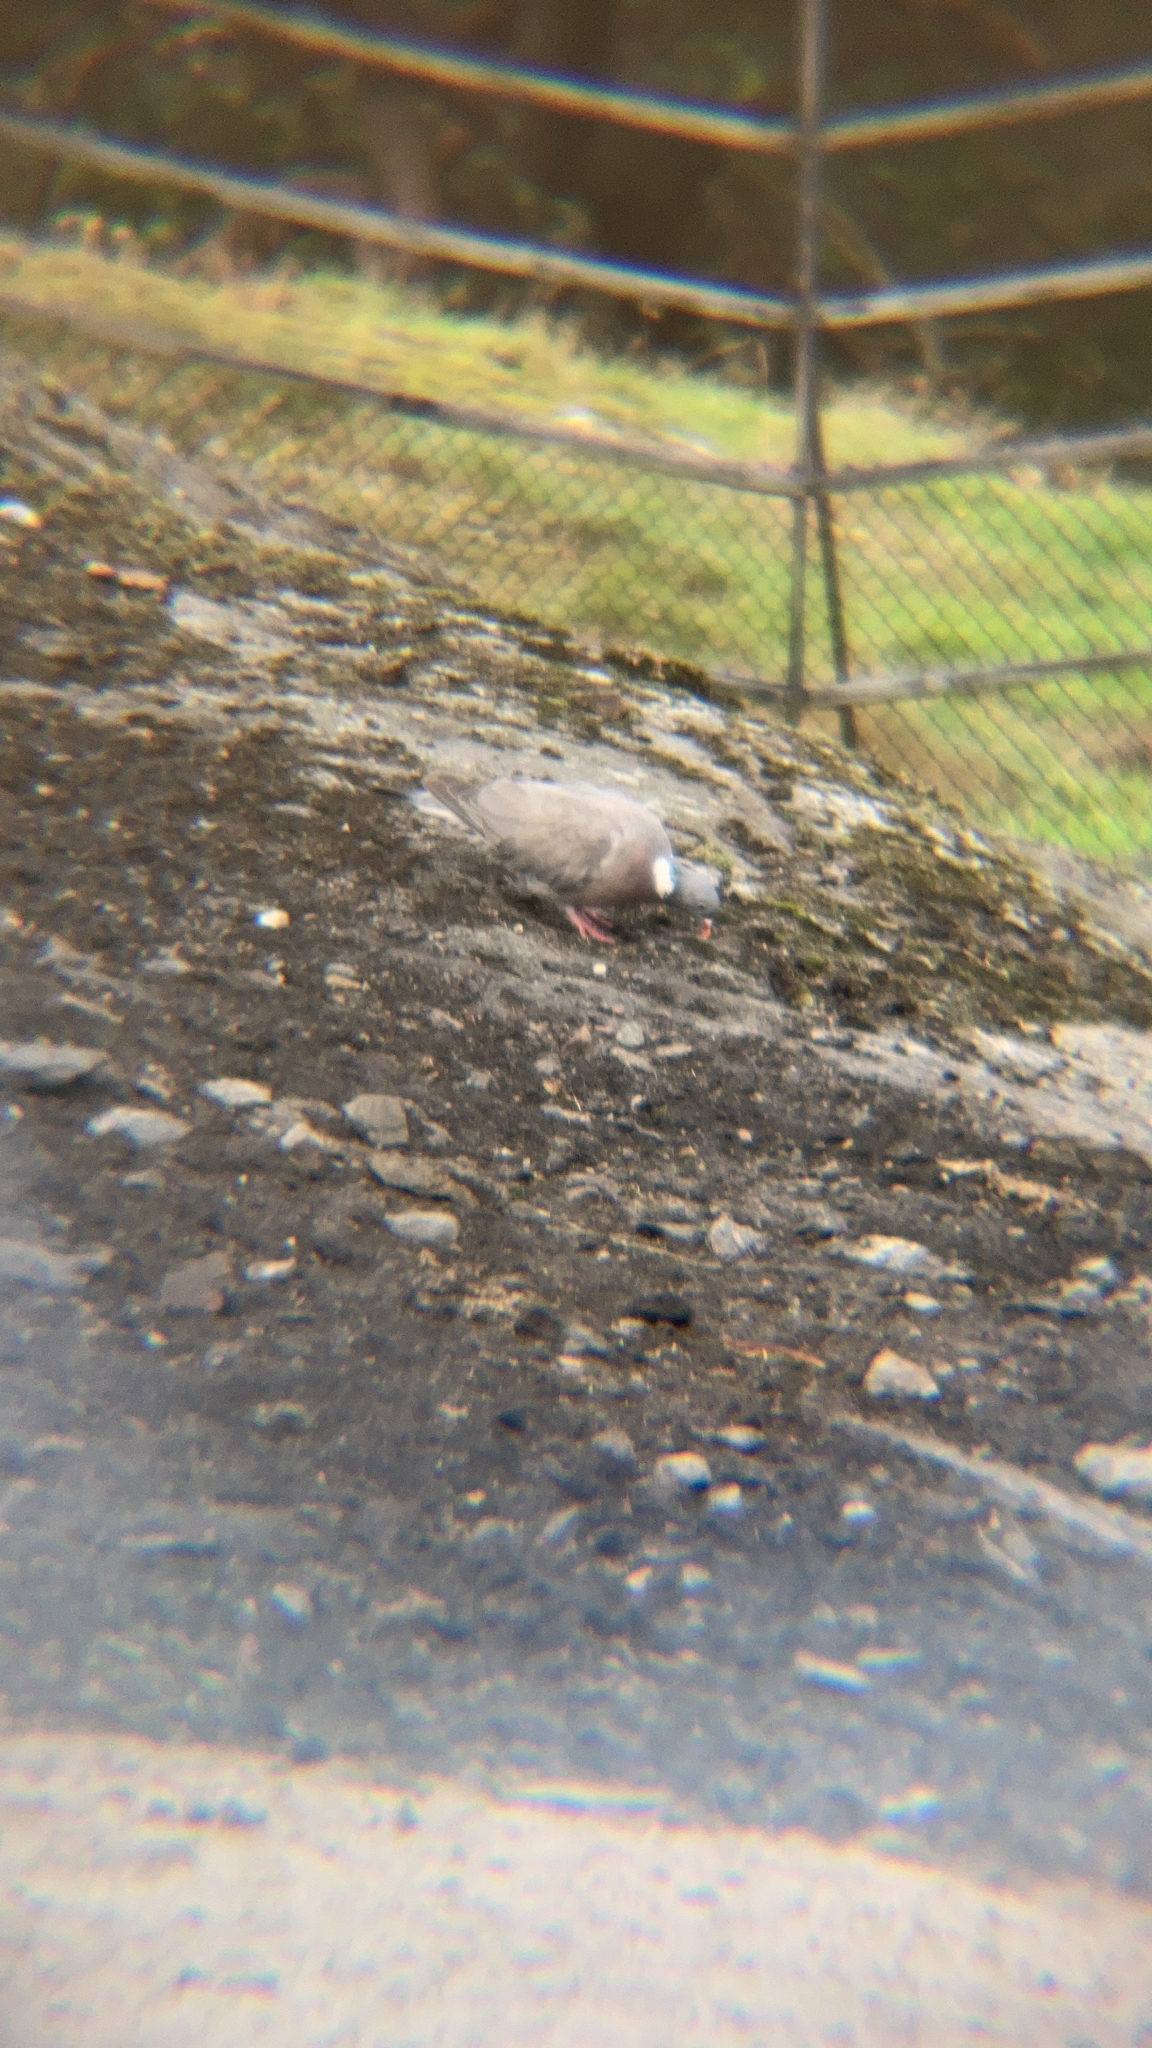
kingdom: Animalia
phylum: Chordata
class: Aves
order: Columbiformes
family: Columbidae
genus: Columba
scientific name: Columba palumbus
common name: Common wood pigeon
